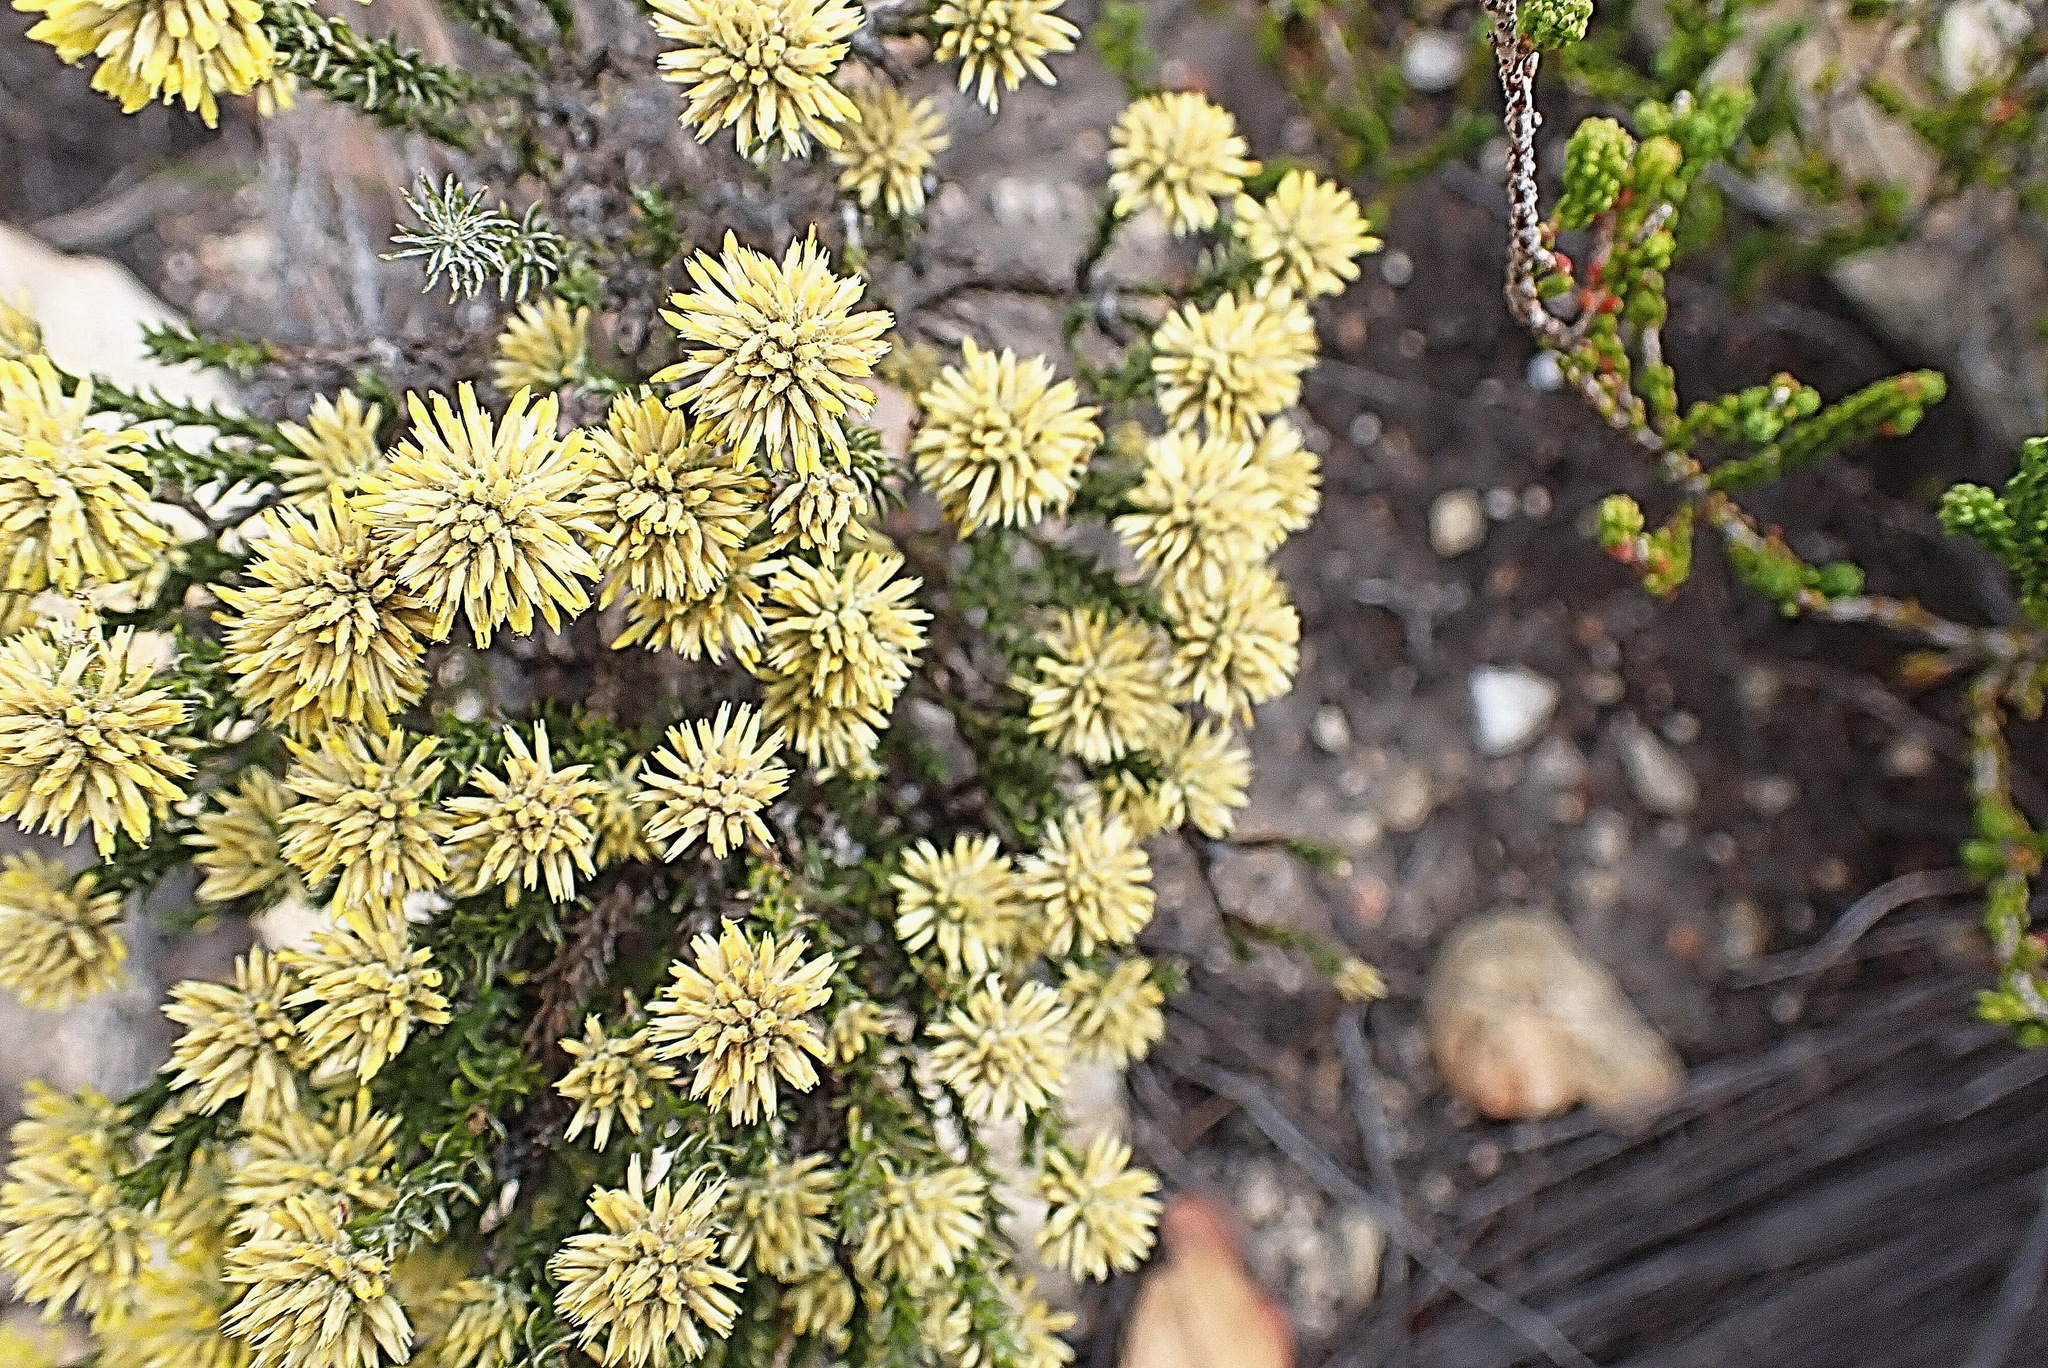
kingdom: Plantae
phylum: Tracheophyta
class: Magnoliopsida
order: Asterales
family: Asteraceae
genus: Seriphium
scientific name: Seriphium spirale
